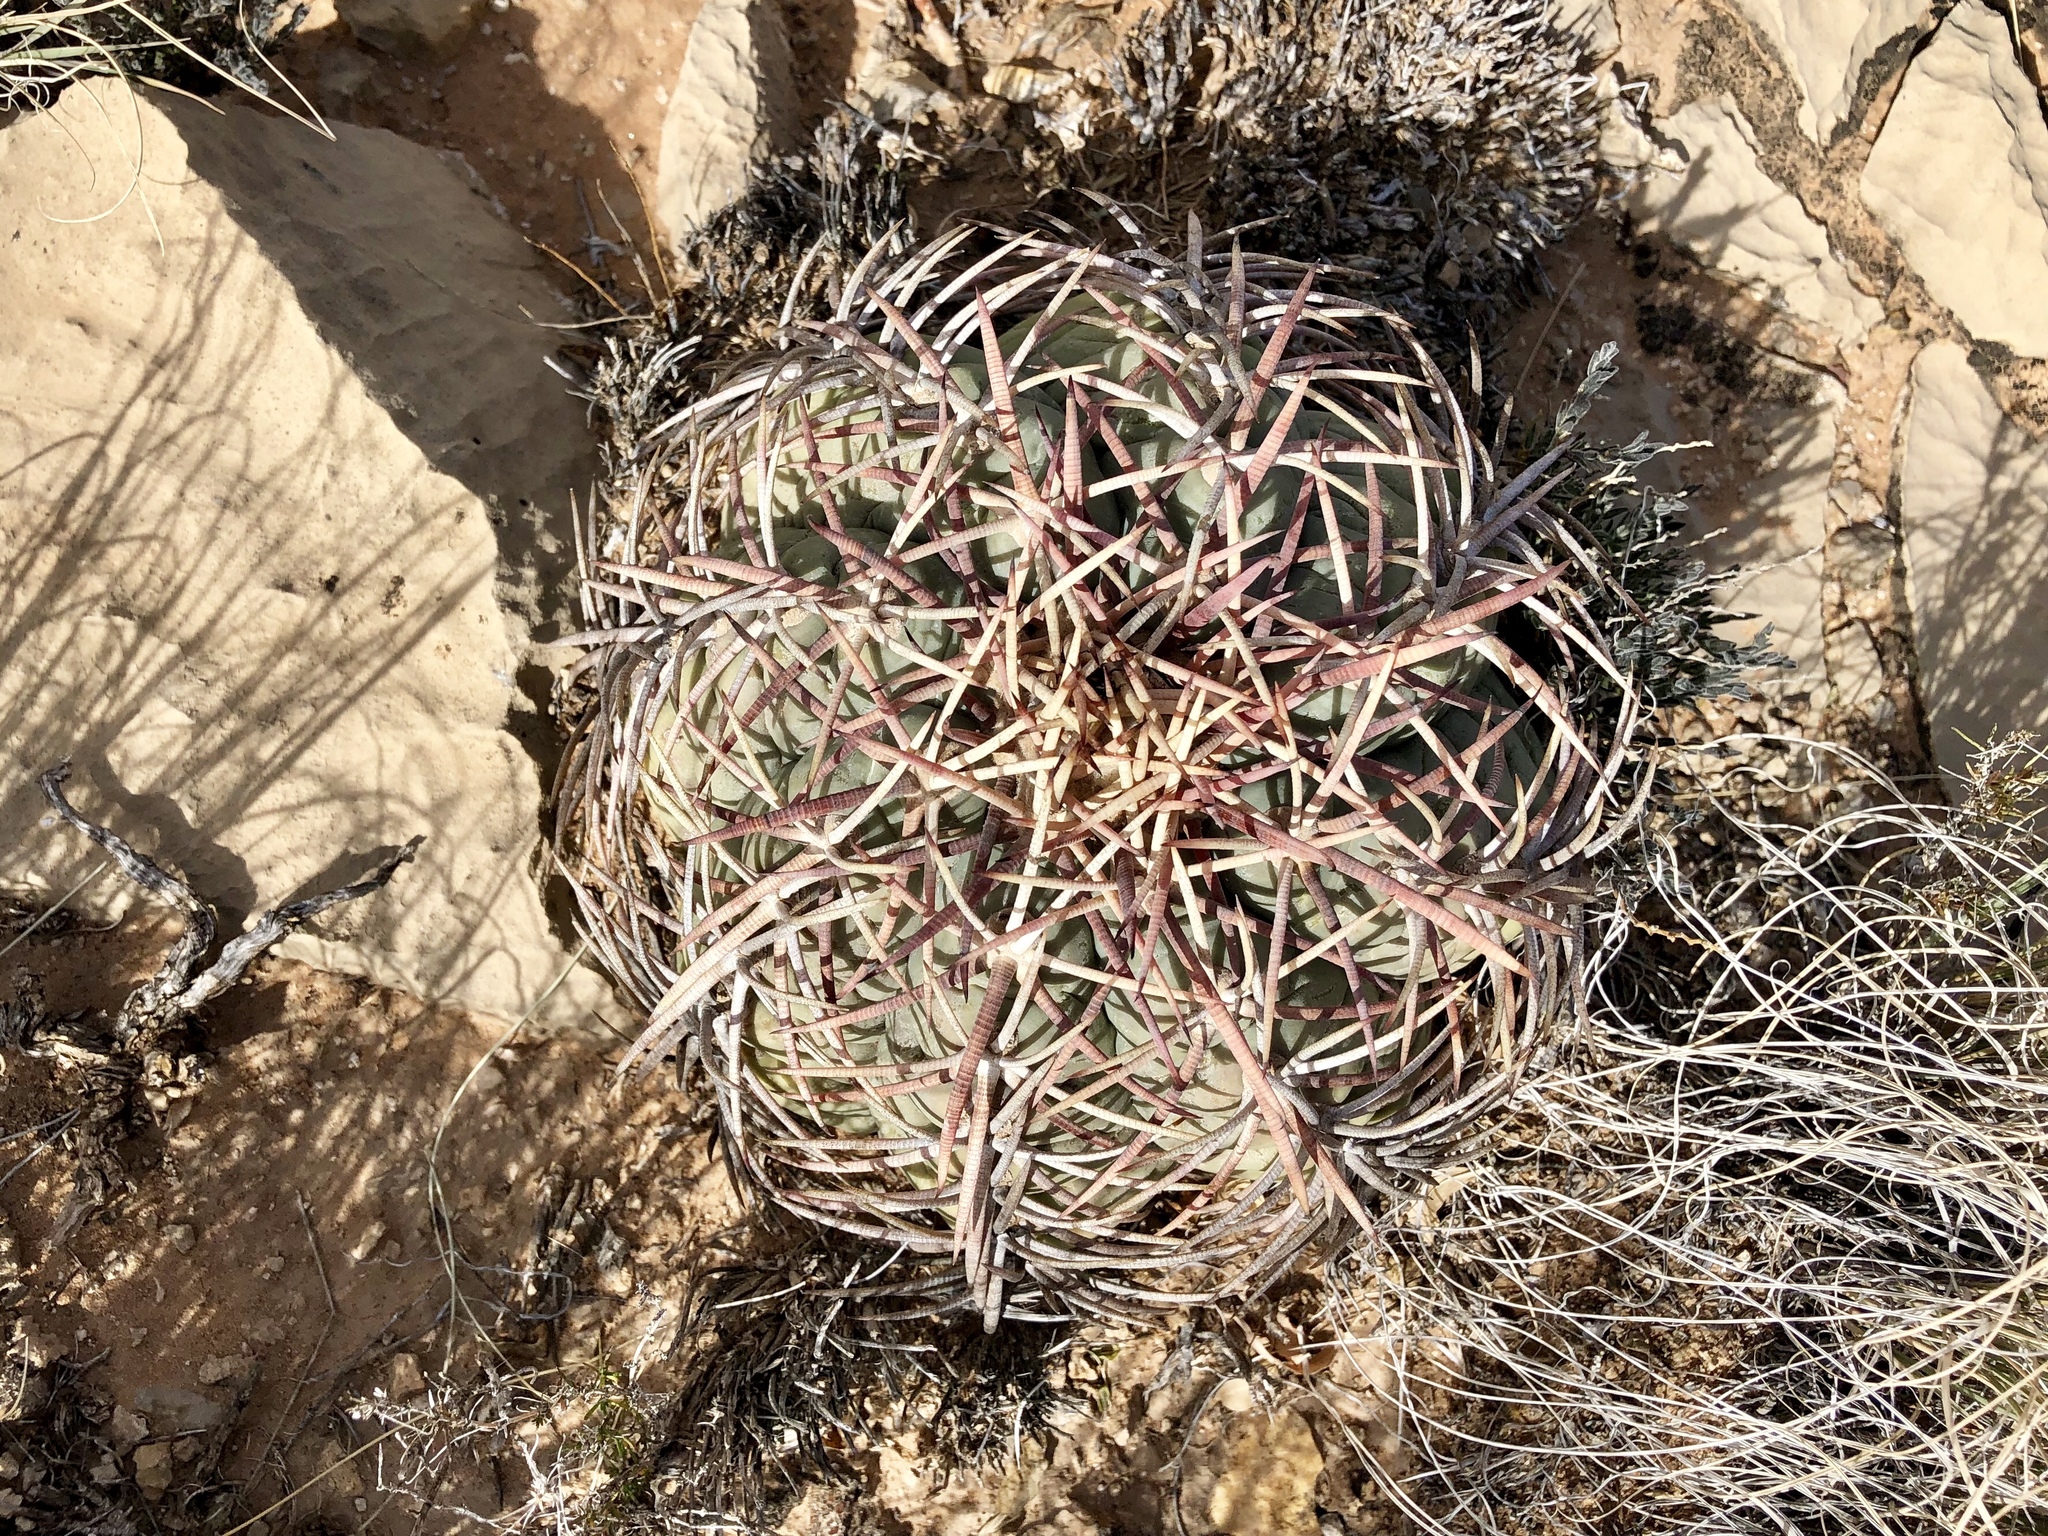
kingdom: Plantae
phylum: Tracheophyta
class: Magnoliopsida
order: Caryophyllales
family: Cactaceae
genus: Echinocactus
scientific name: Echinocactus horizonthalonius
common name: Devilshead
